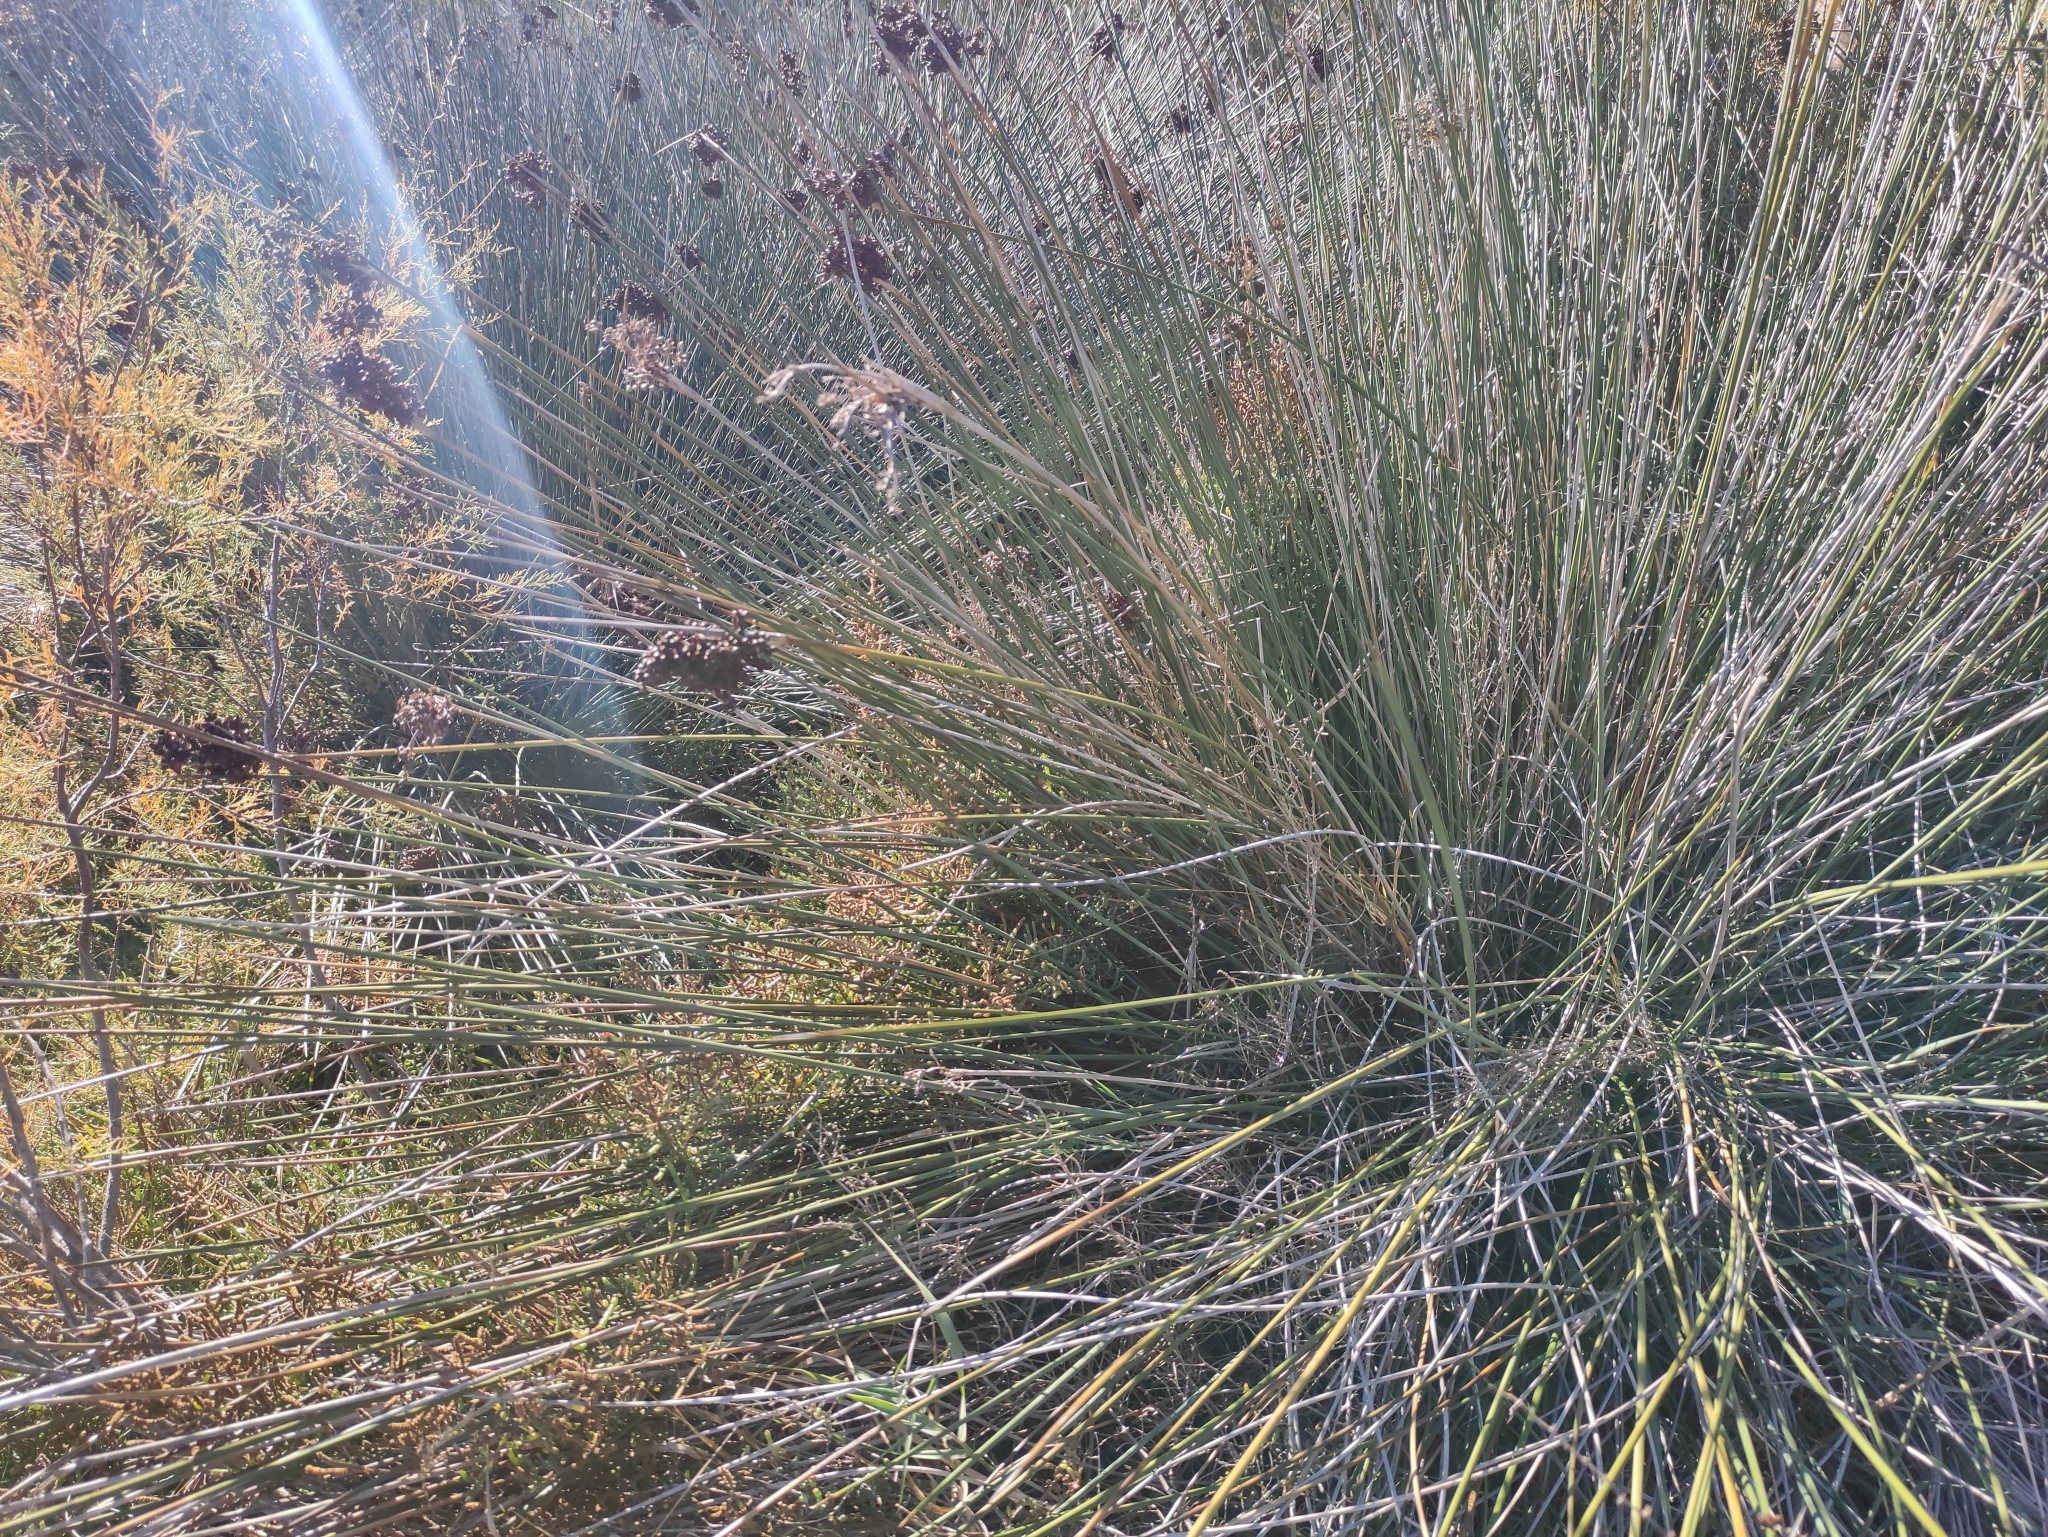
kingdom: Plantae
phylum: Tracheophyta
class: Liliopsida
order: Poales
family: Juncaceae
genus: Juncus
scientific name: Juncus acutus
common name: Sharp rush
